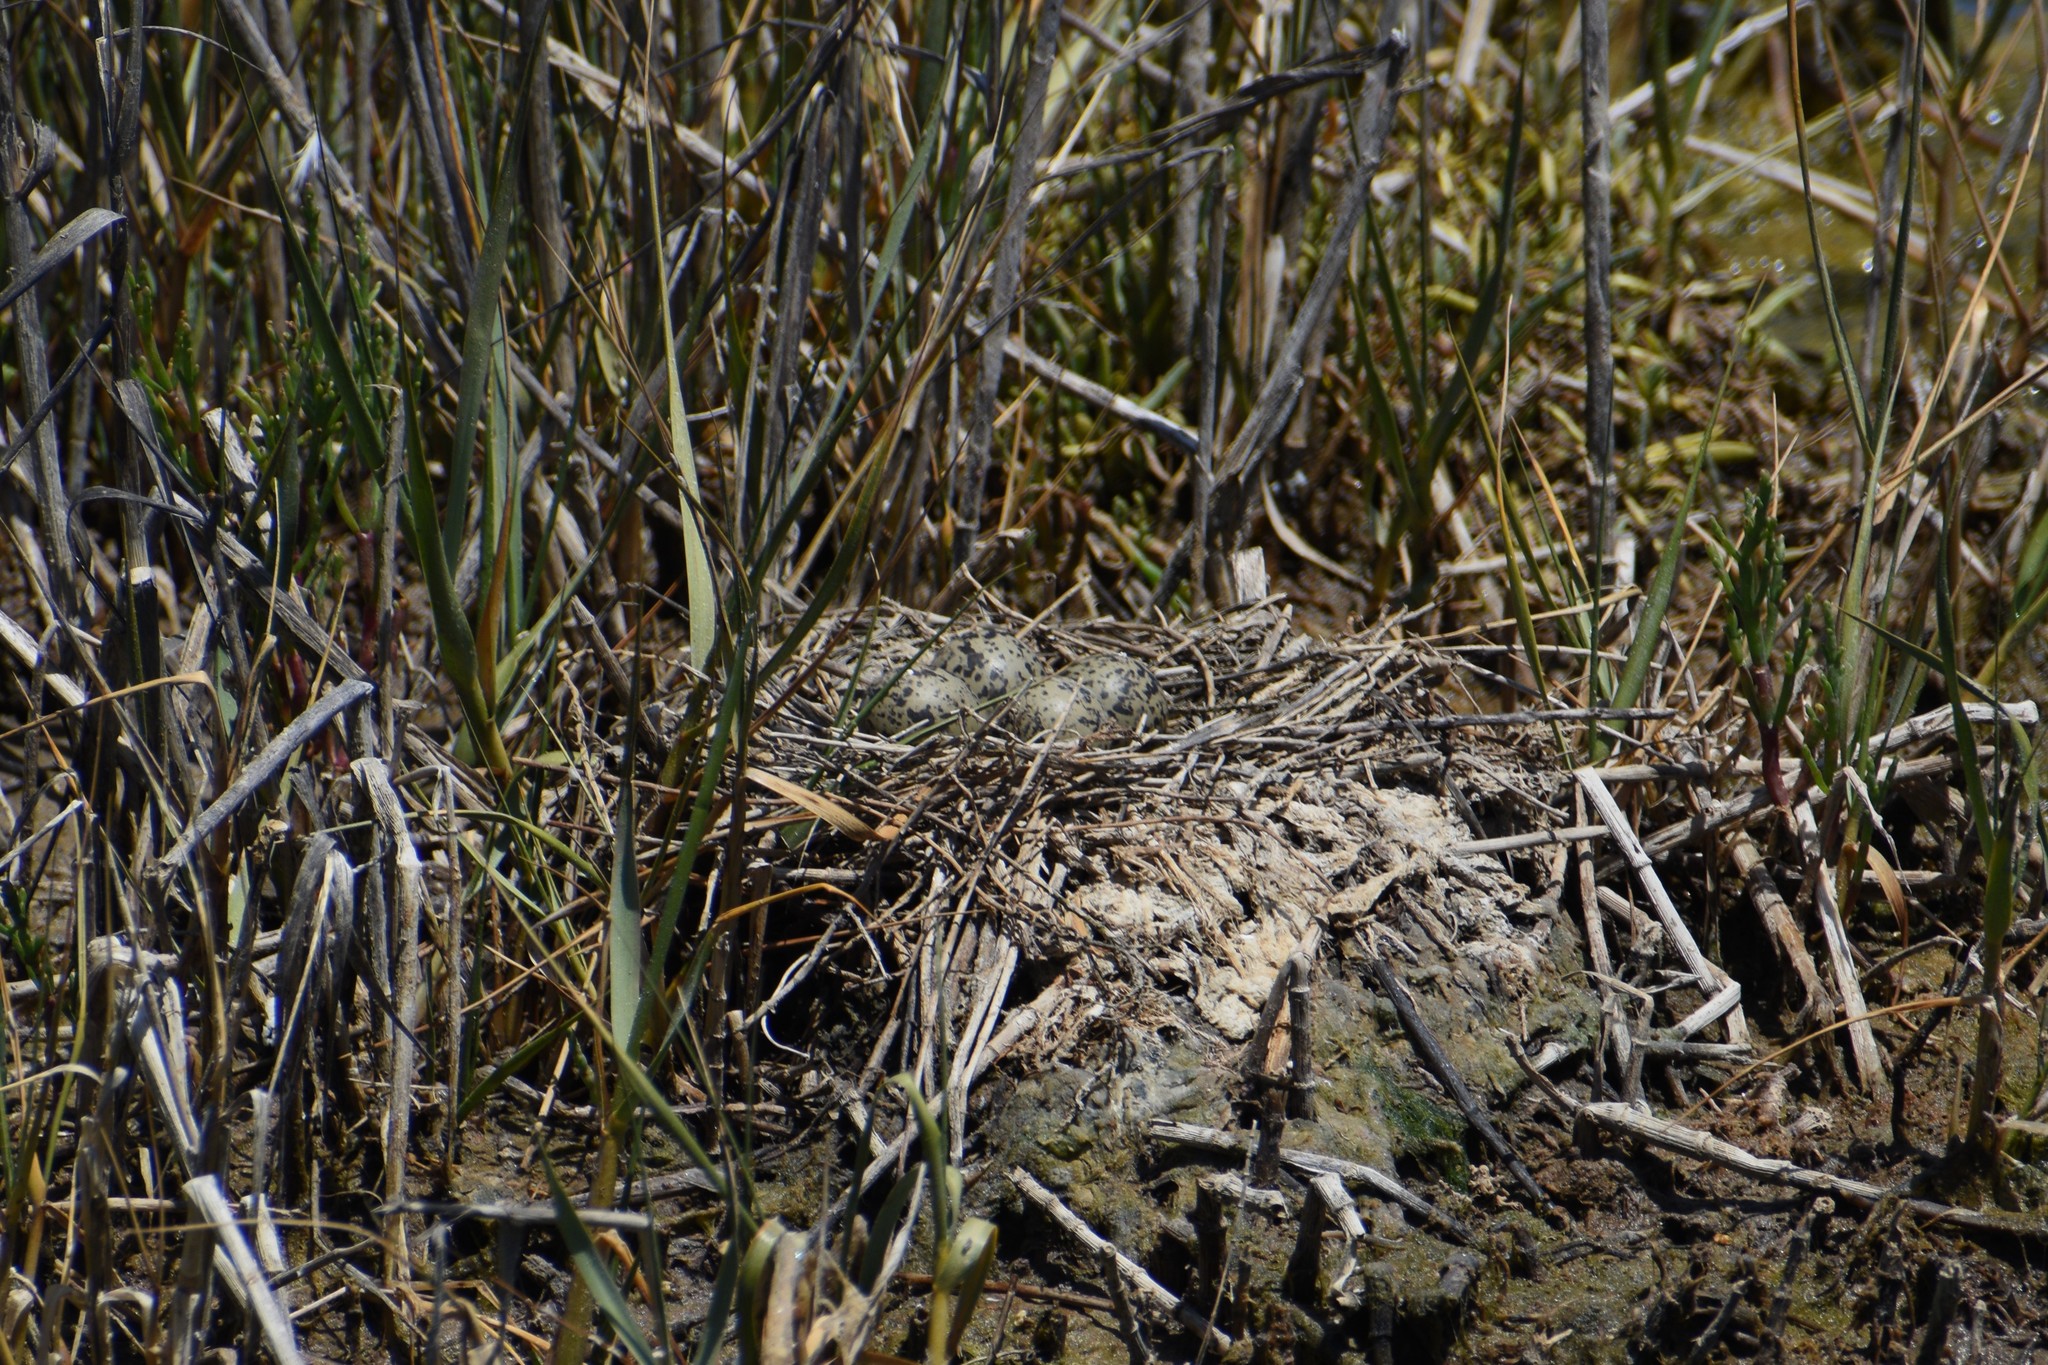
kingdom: Animalia
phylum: Chordata
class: Aves
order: Charadriiformes
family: Recurvirostridae
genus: Himantopus
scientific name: Himantopus mexicanus
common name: Black-necked stilt
